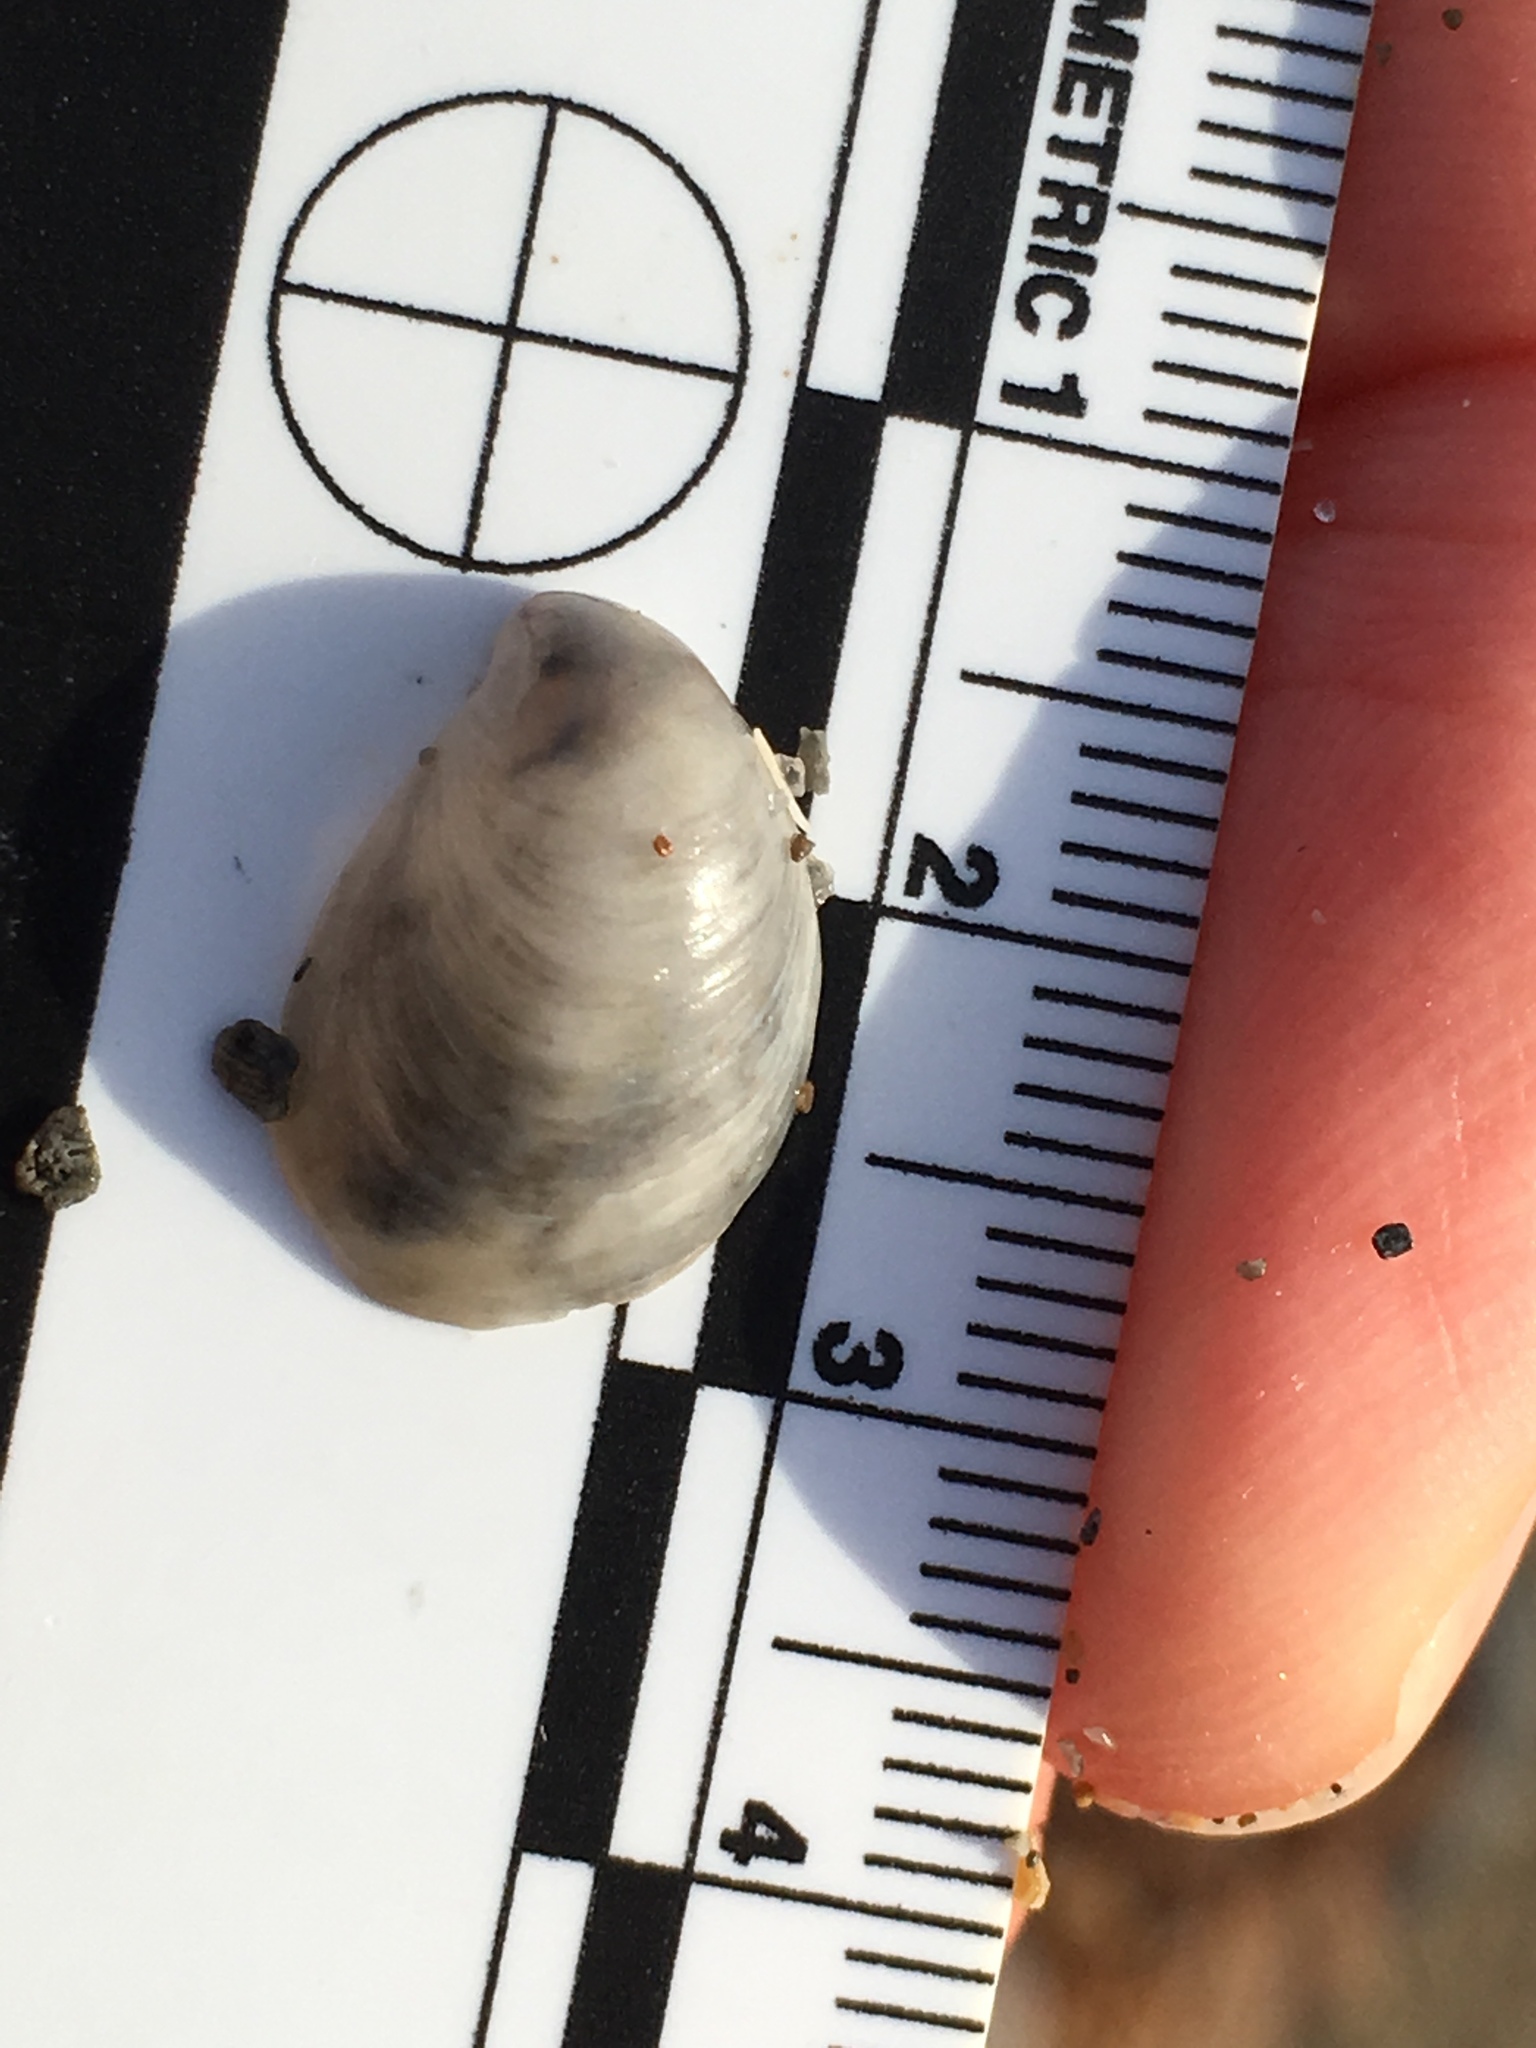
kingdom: Animalia
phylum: Mollusca
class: Gastropoda
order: Littorinimorpha
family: Calyptraeidae
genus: Crepidula
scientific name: Crepidula fornicata
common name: Slipper limpet
